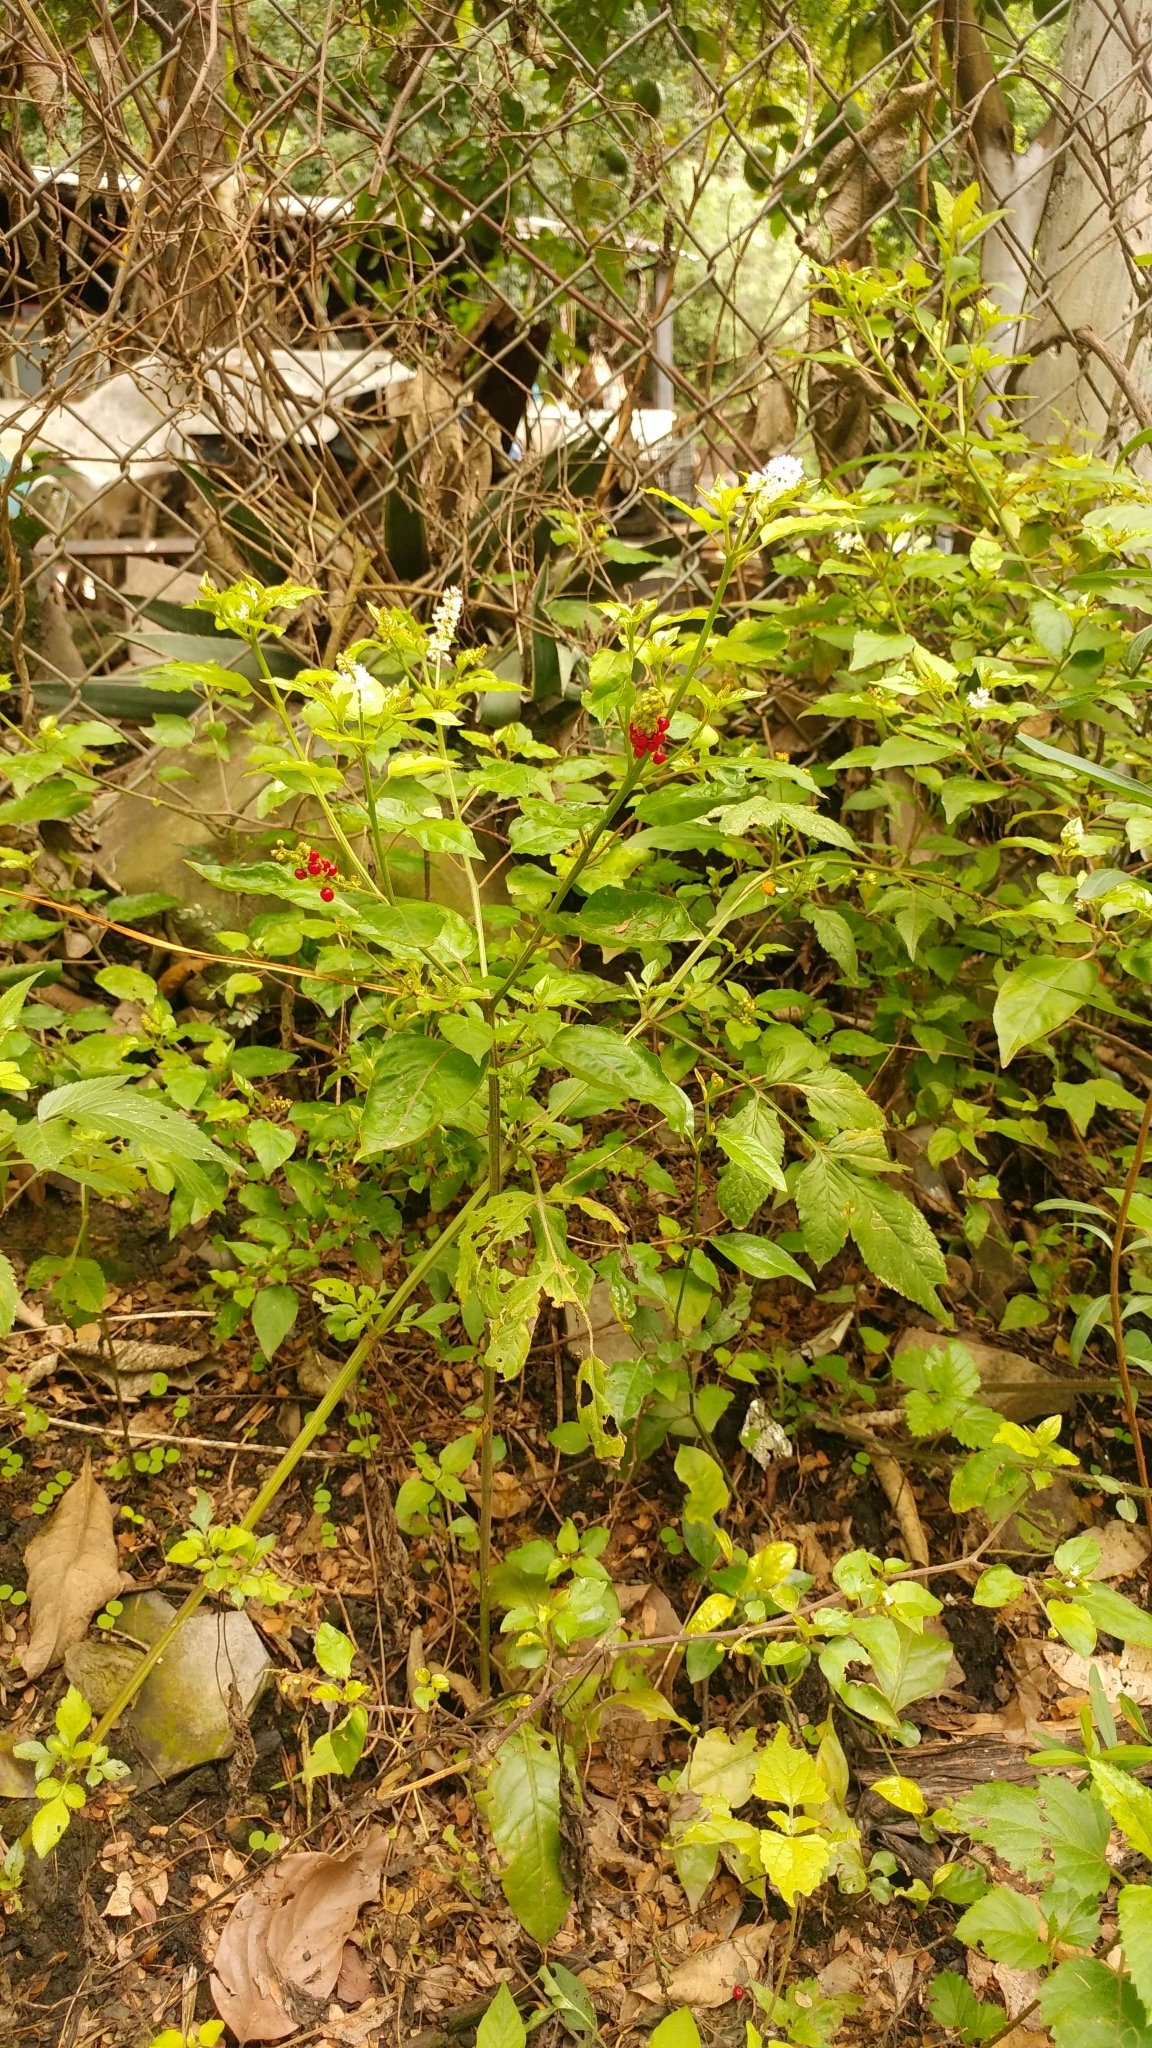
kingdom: Plantae
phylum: Tracheophyta
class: Magnoliopsida
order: Caryophyllales
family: Phytolaccaceae
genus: Rivina
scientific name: Rivina humilis
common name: Rougeplant
